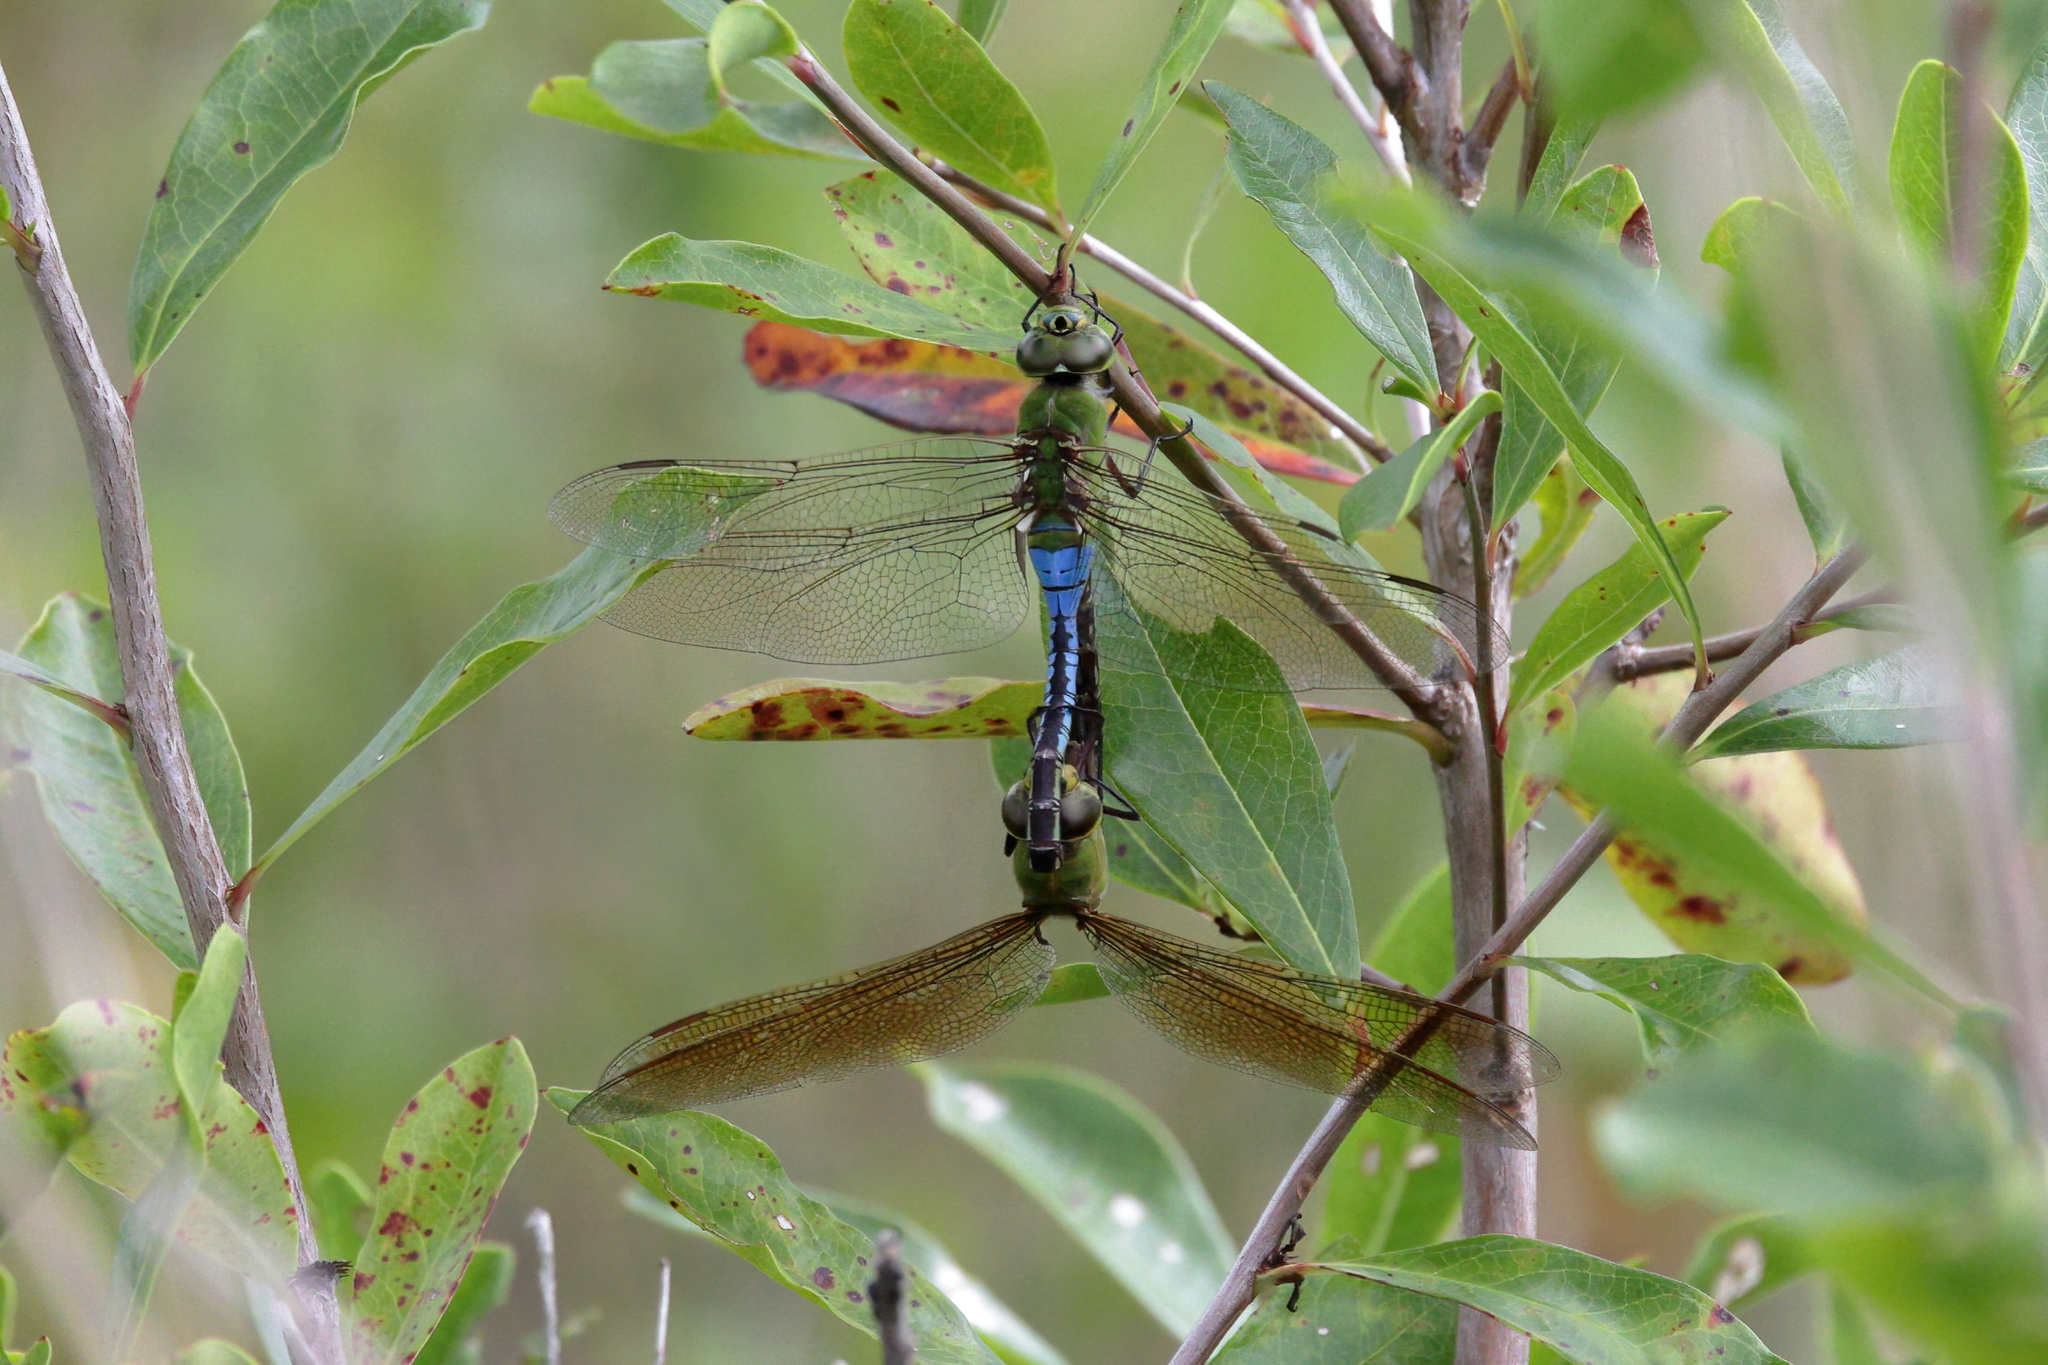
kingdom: Animalia
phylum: Arthropoda
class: Insecta
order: Odonata
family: Aeshnidae
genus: Anax
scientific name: Anax junius
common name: Common green darner
